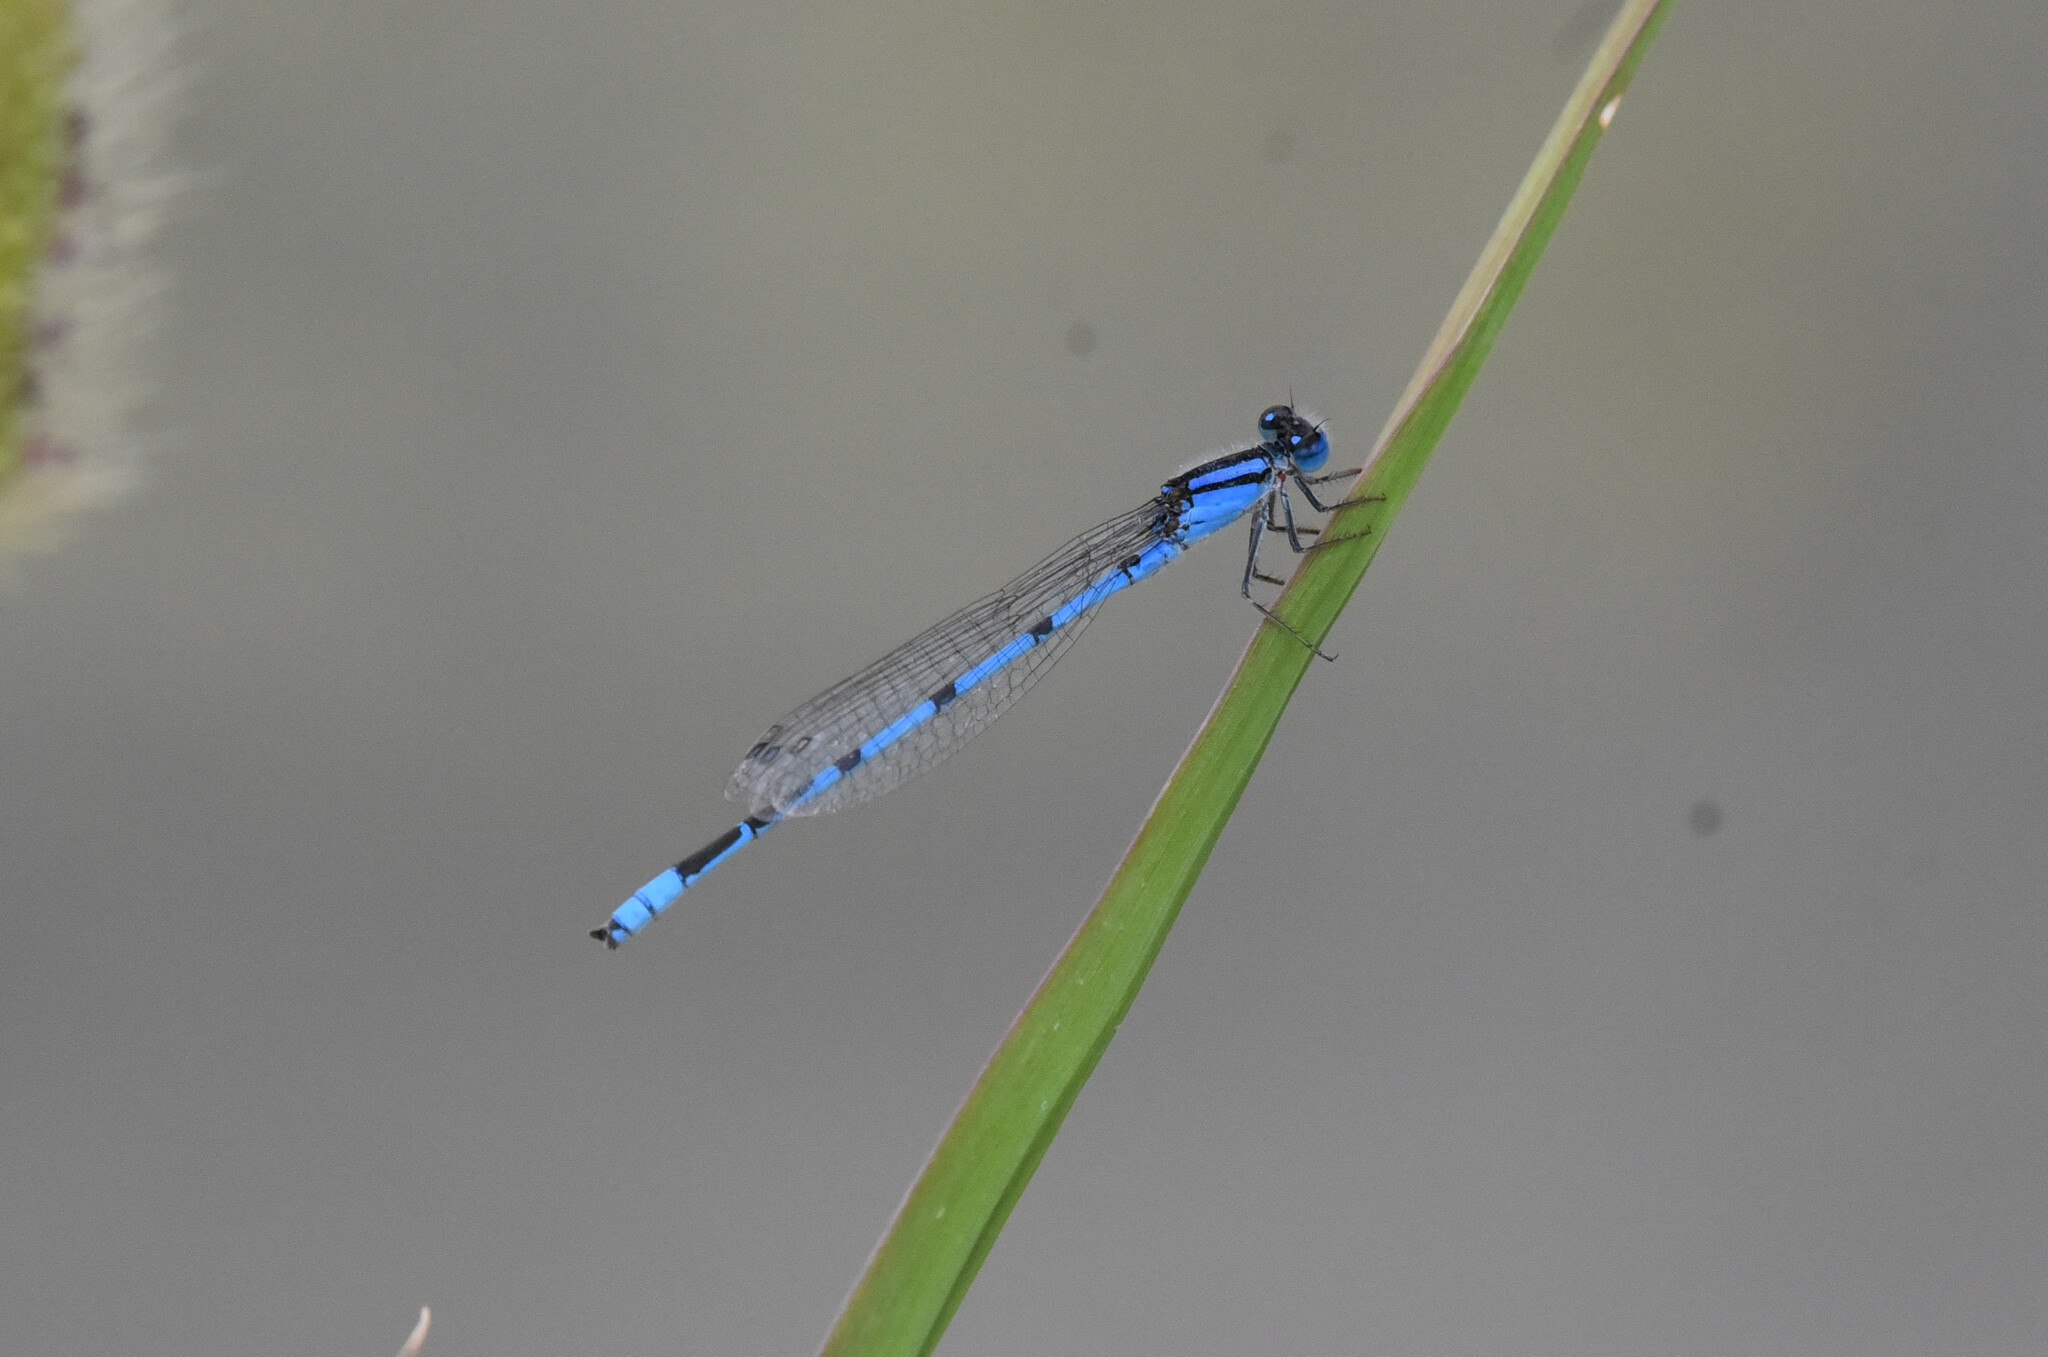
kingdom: Animalia
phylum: Arthropoda
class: Insecta
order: Odonata
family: Coenagrionidae
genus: Enallagma
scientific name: Enallagma civile
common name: Damselfly
